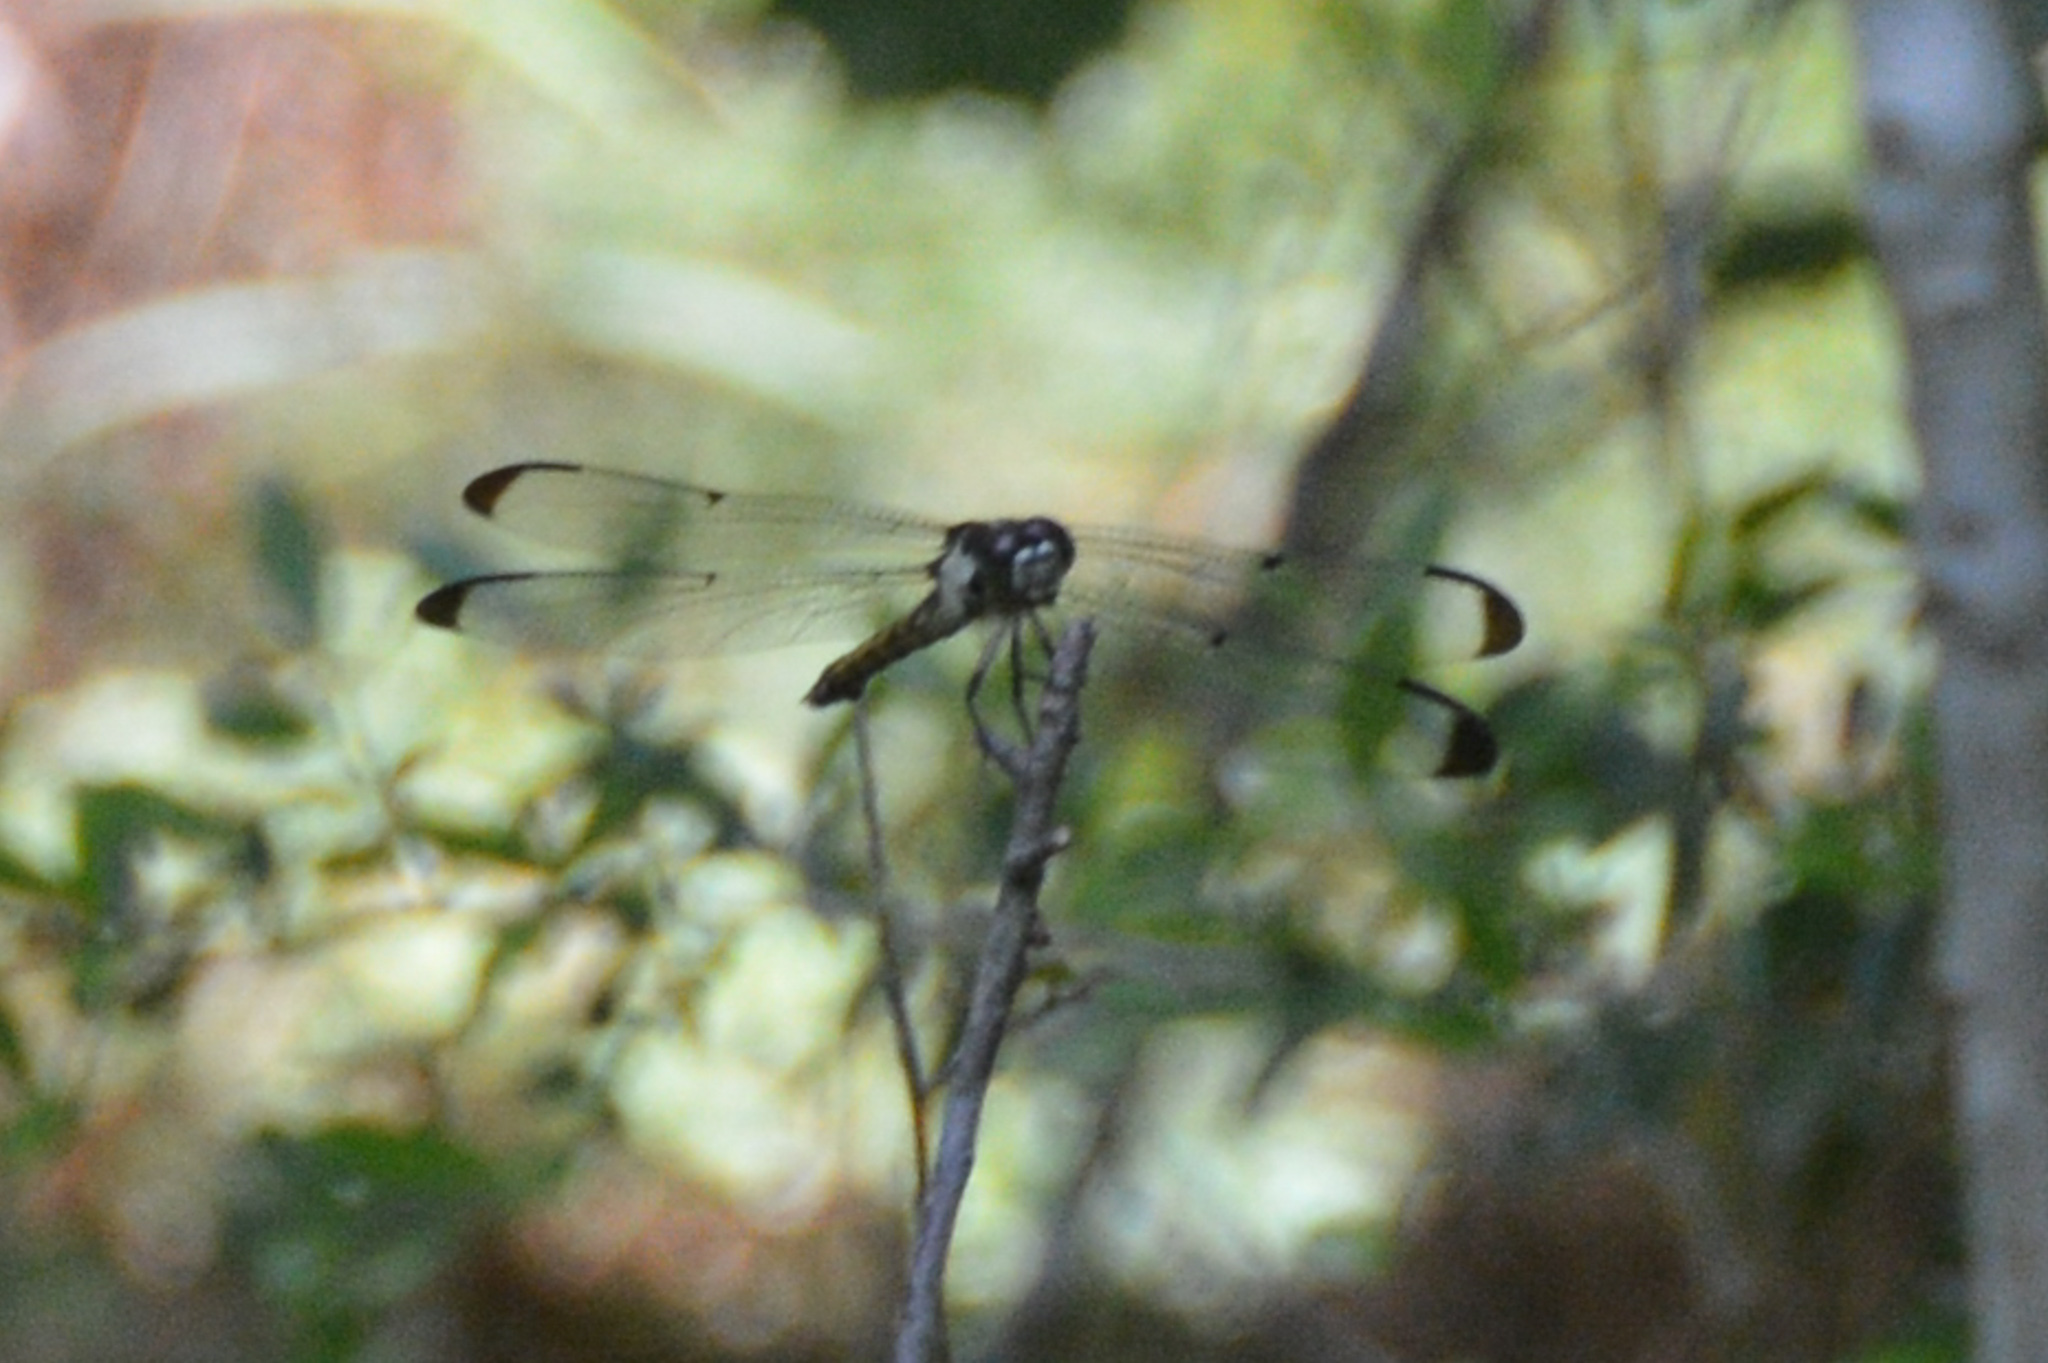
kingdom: Animalia
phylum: Arthropoda
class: Insecta
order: Odonata
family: Libellulidae
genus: Libellula
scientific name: Libellula vibrans
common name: Great blue skimmer
